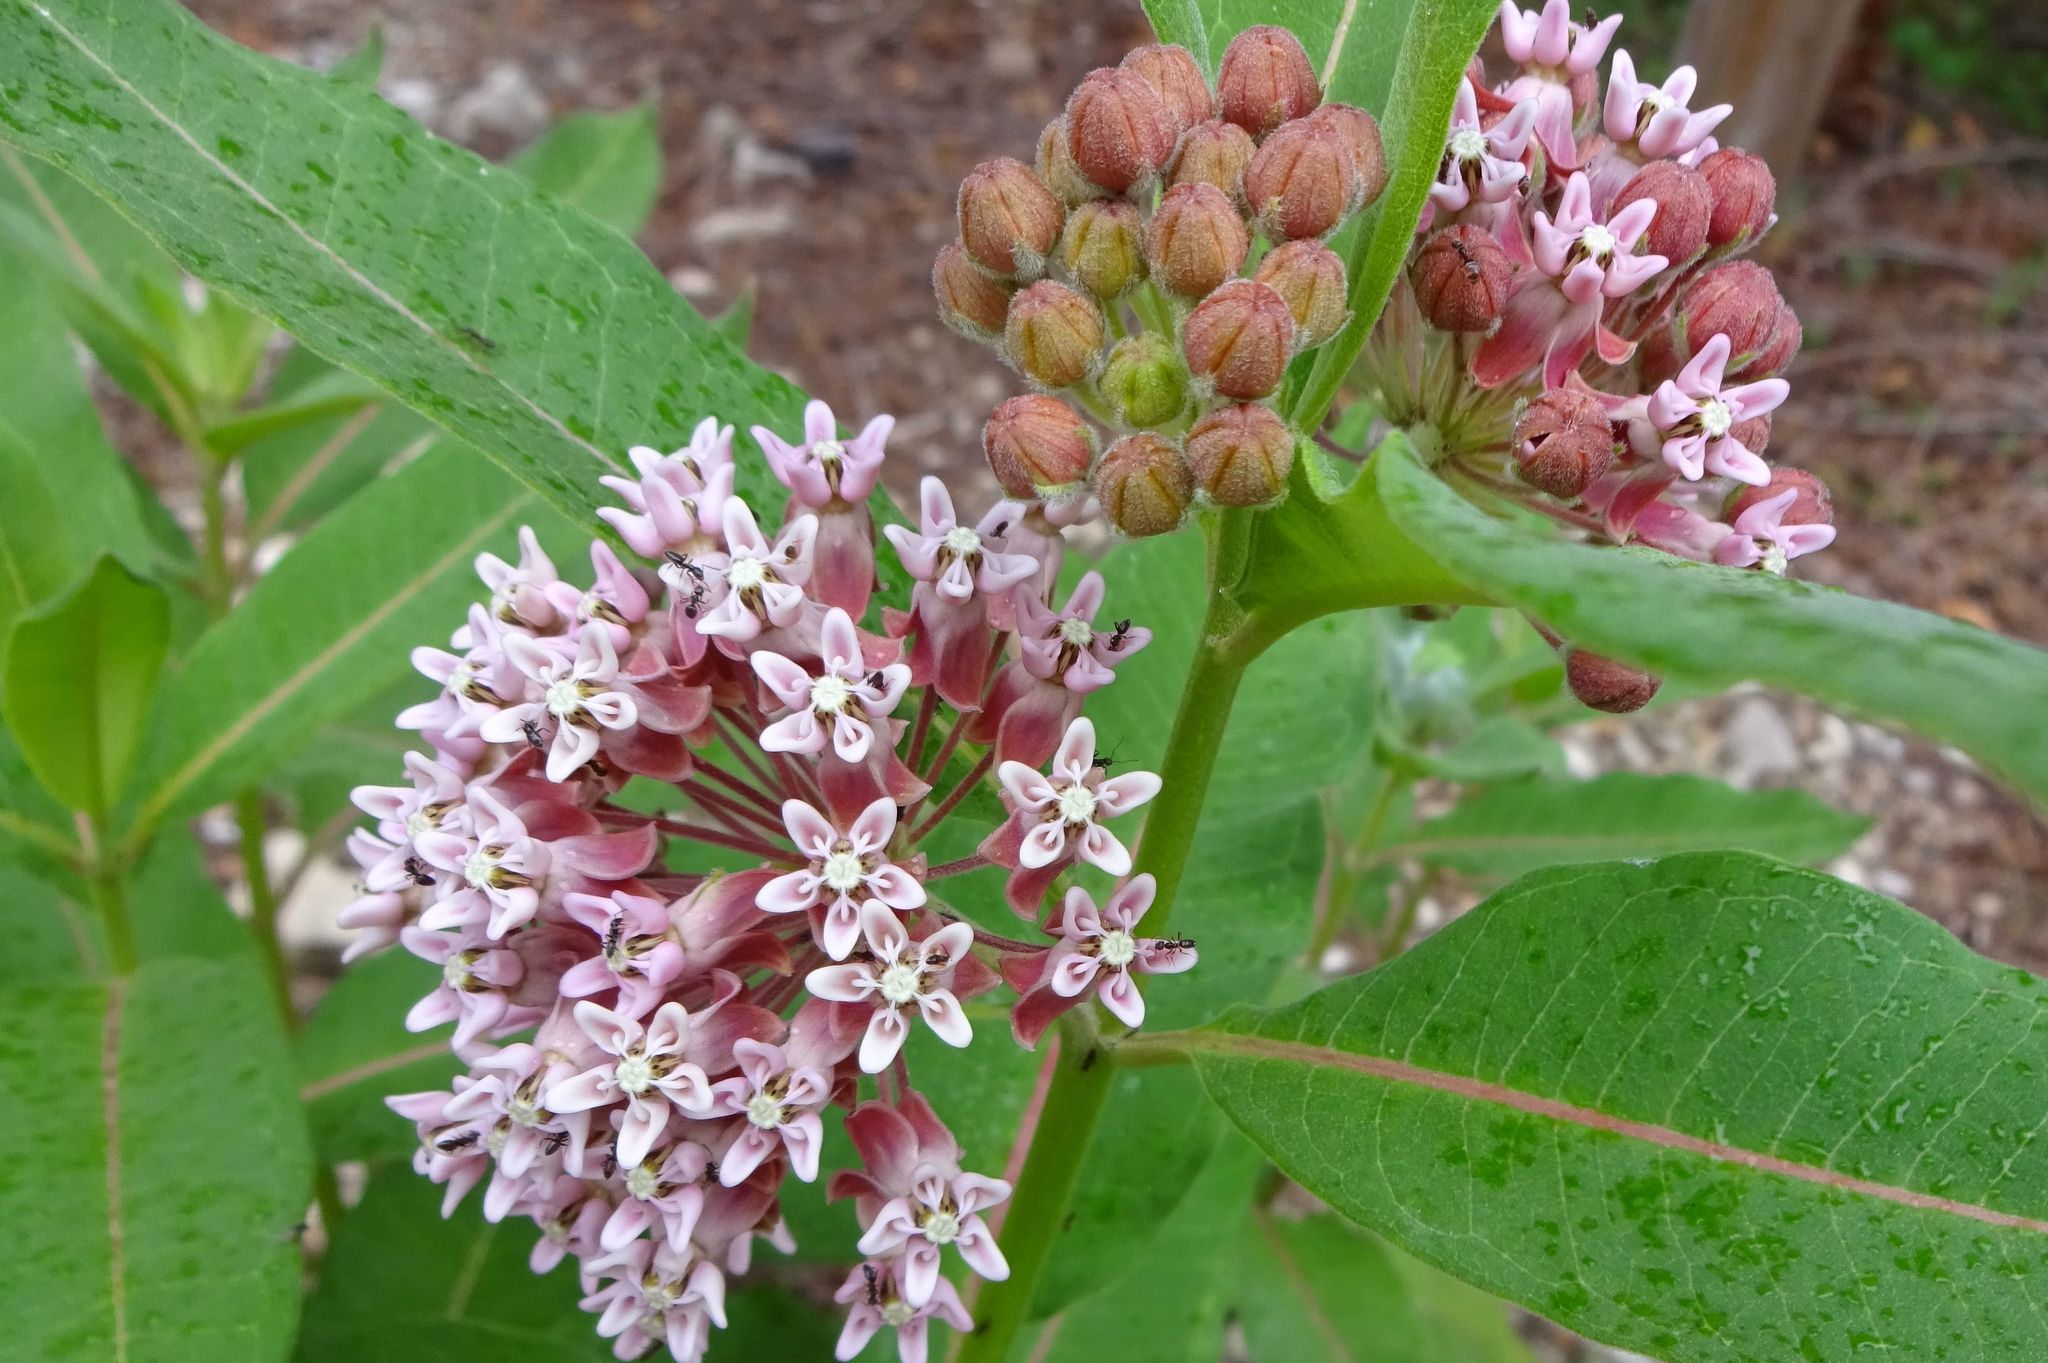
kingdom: Plantae
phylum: Tracheophyta
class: Magnoliopsida
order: Gentianales
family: Apocynaceae
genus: Asclepias
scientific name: Asclepias syriaca
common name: Common milkweed
